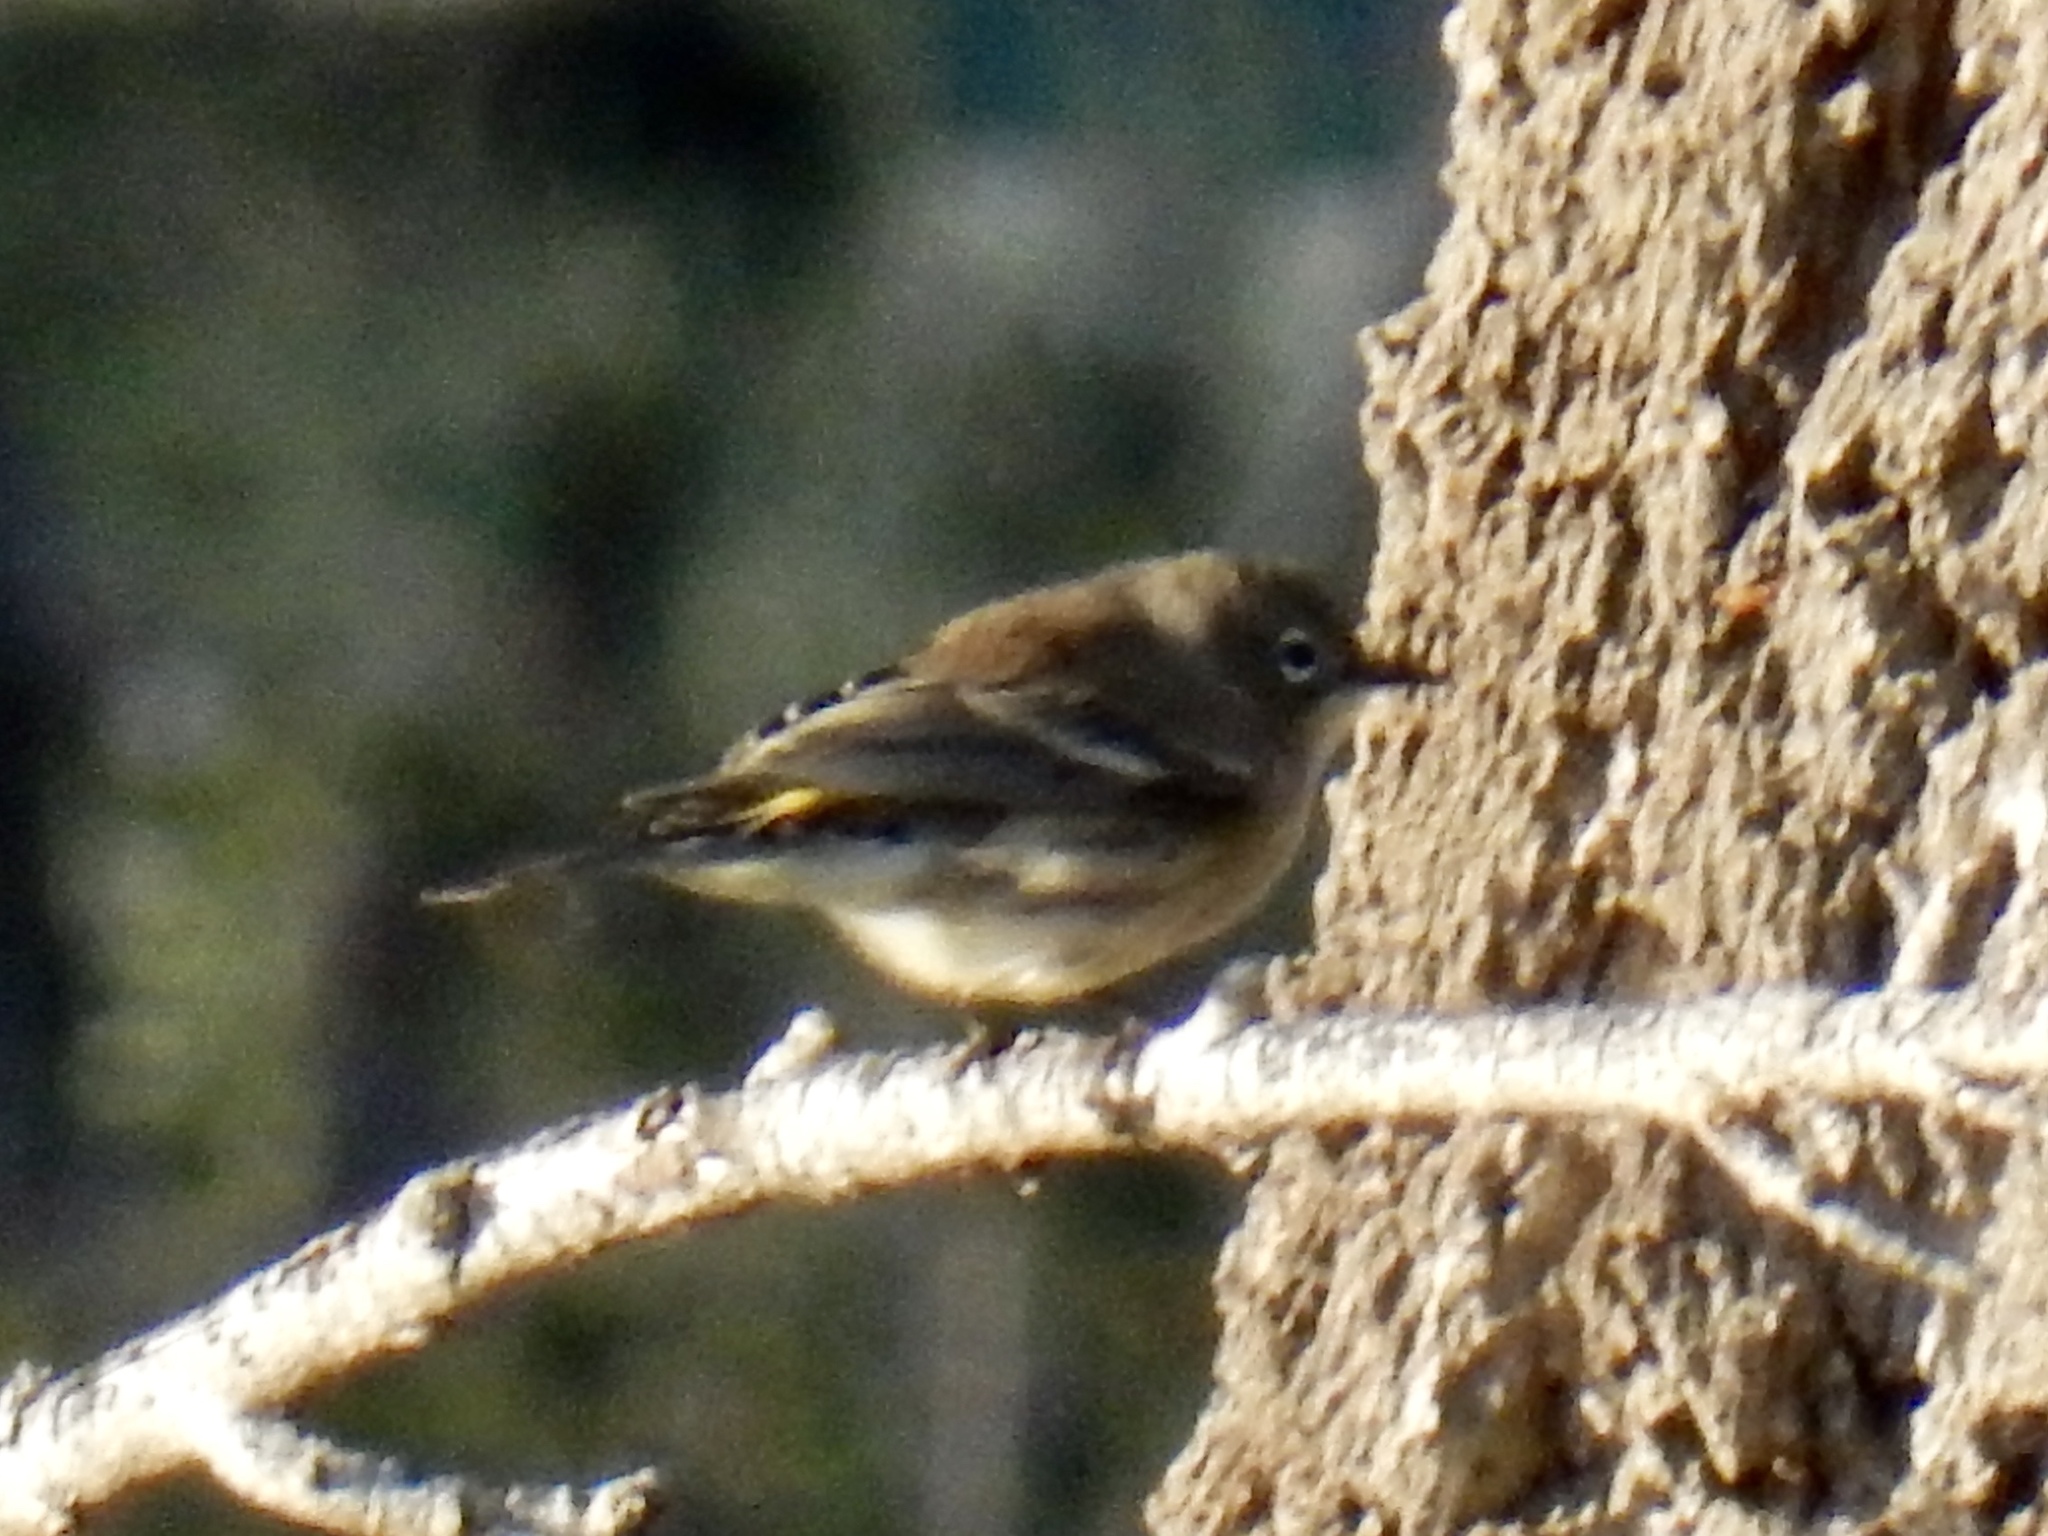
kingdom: Animalia
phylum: Chordata
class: Aves
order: Passeriformes
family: Parulidae
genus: Setophaga
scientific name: Setophaga coronata
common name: Myrtle warbler
